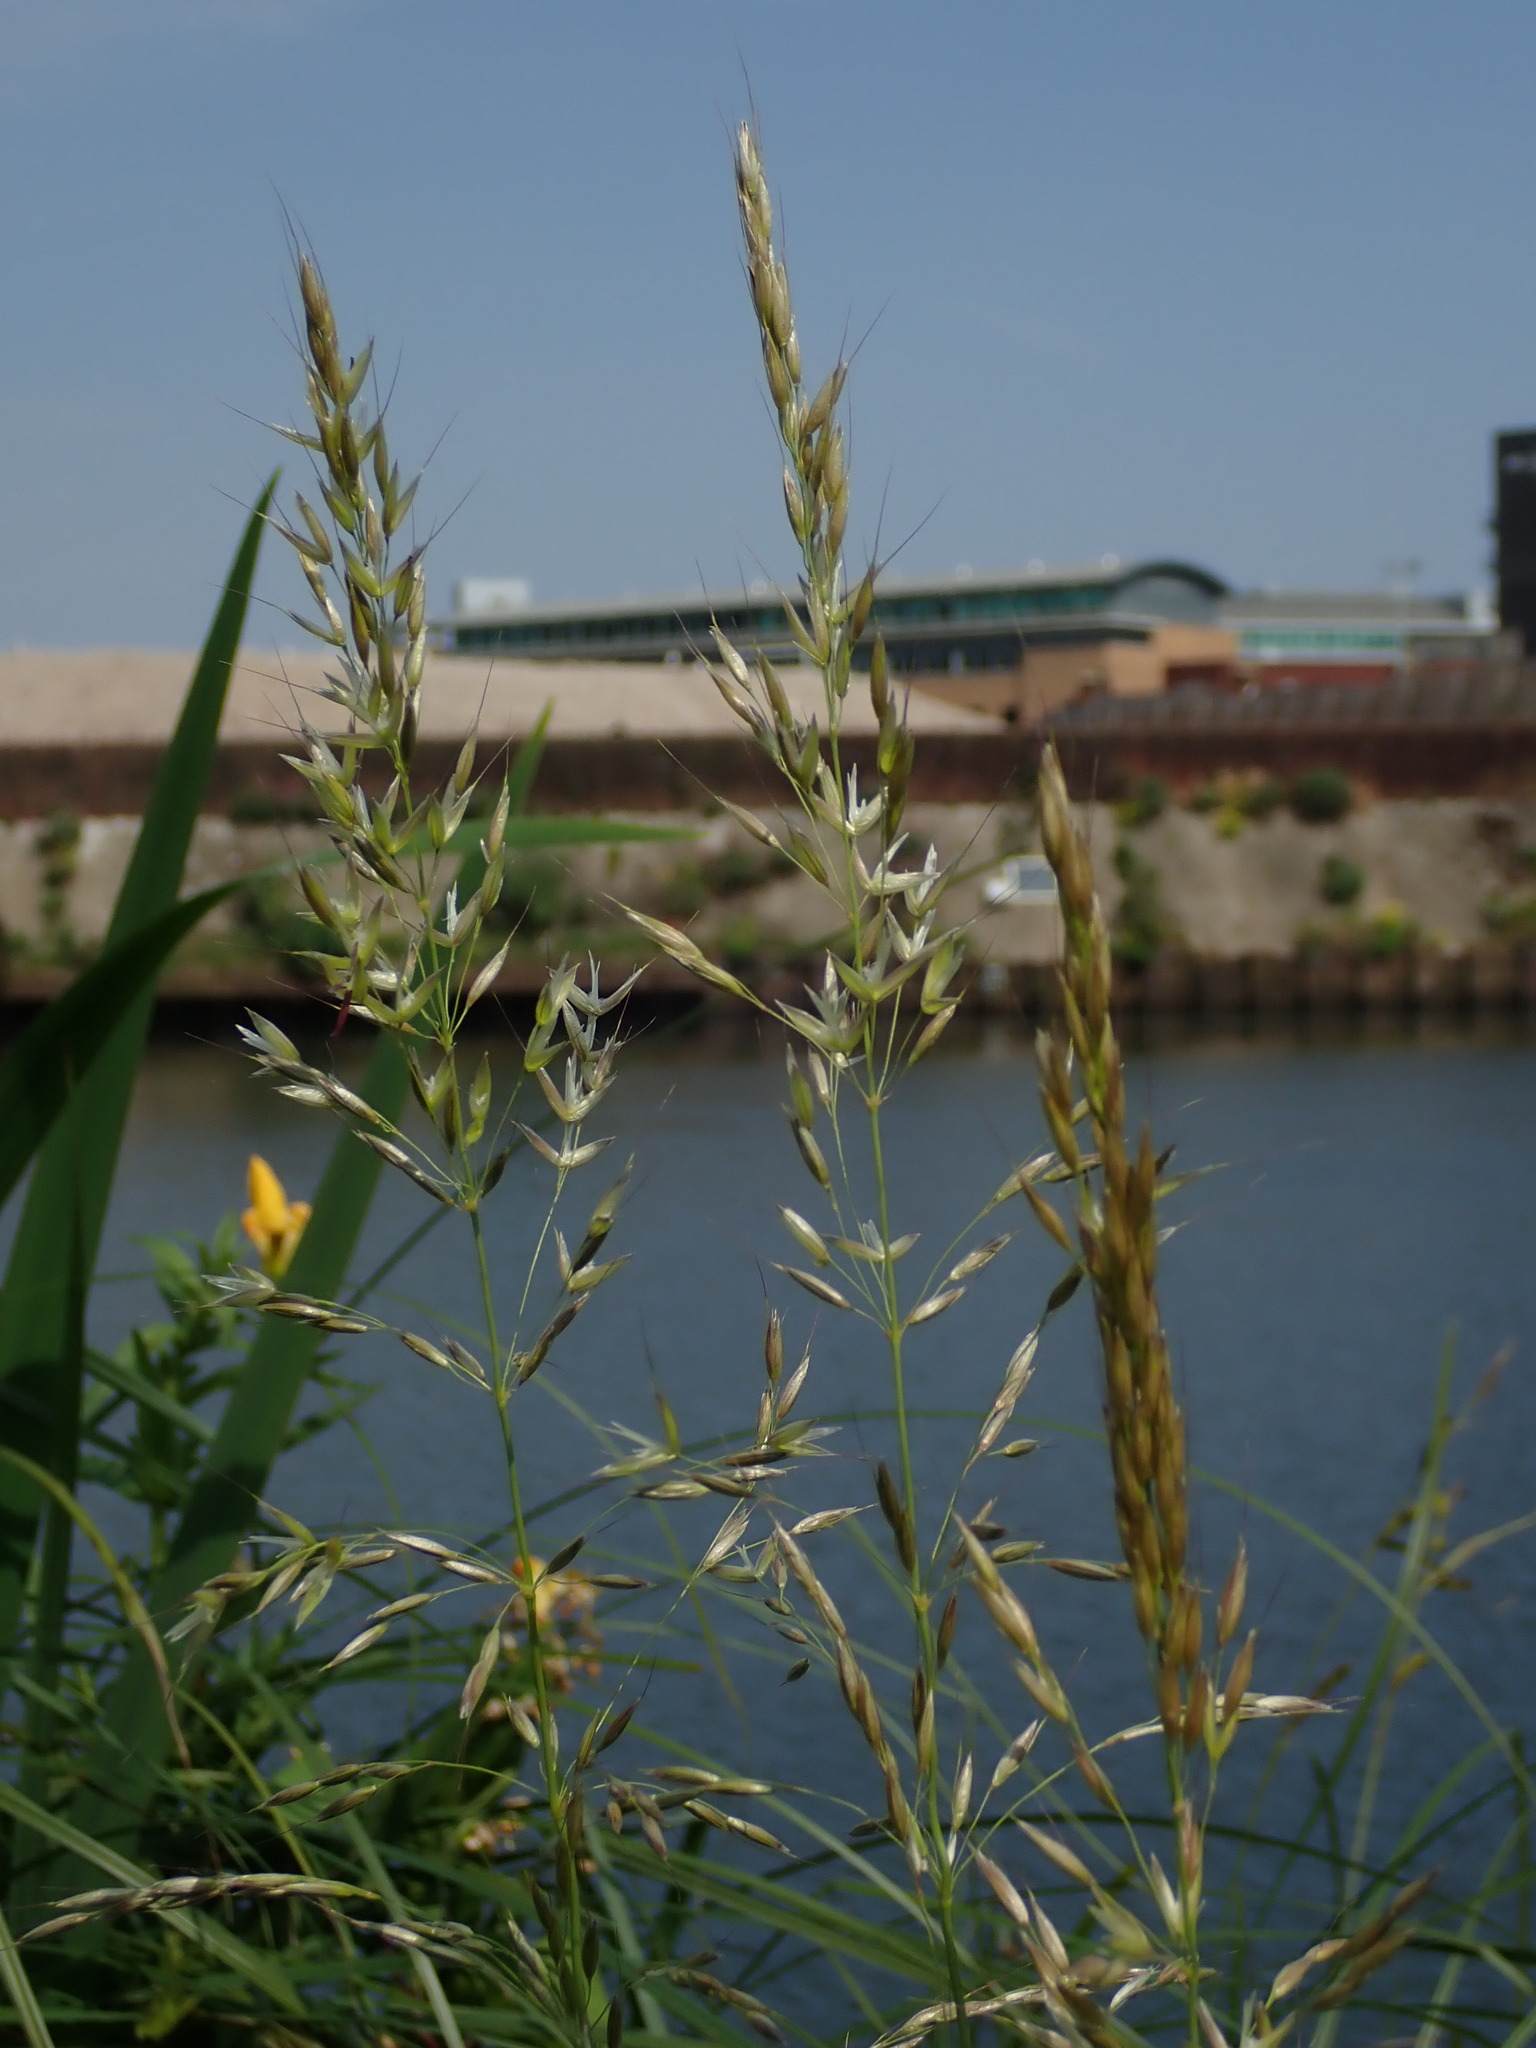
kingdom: Plantae
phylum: Tracheophyta
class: Liliopsida
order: Poales
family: Poaceae
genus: Arrhenatherum
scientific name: Arrhenatherum elatius
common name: Tall oatgrass
